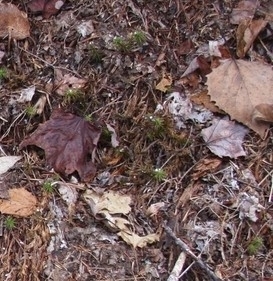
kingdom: Plantae
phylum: Tracheophyta
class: Magnoliopsida
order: Malpighiales
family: Salicaceae
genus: Populus
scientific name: Populus grandidentata
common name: Bigtooth aspen
